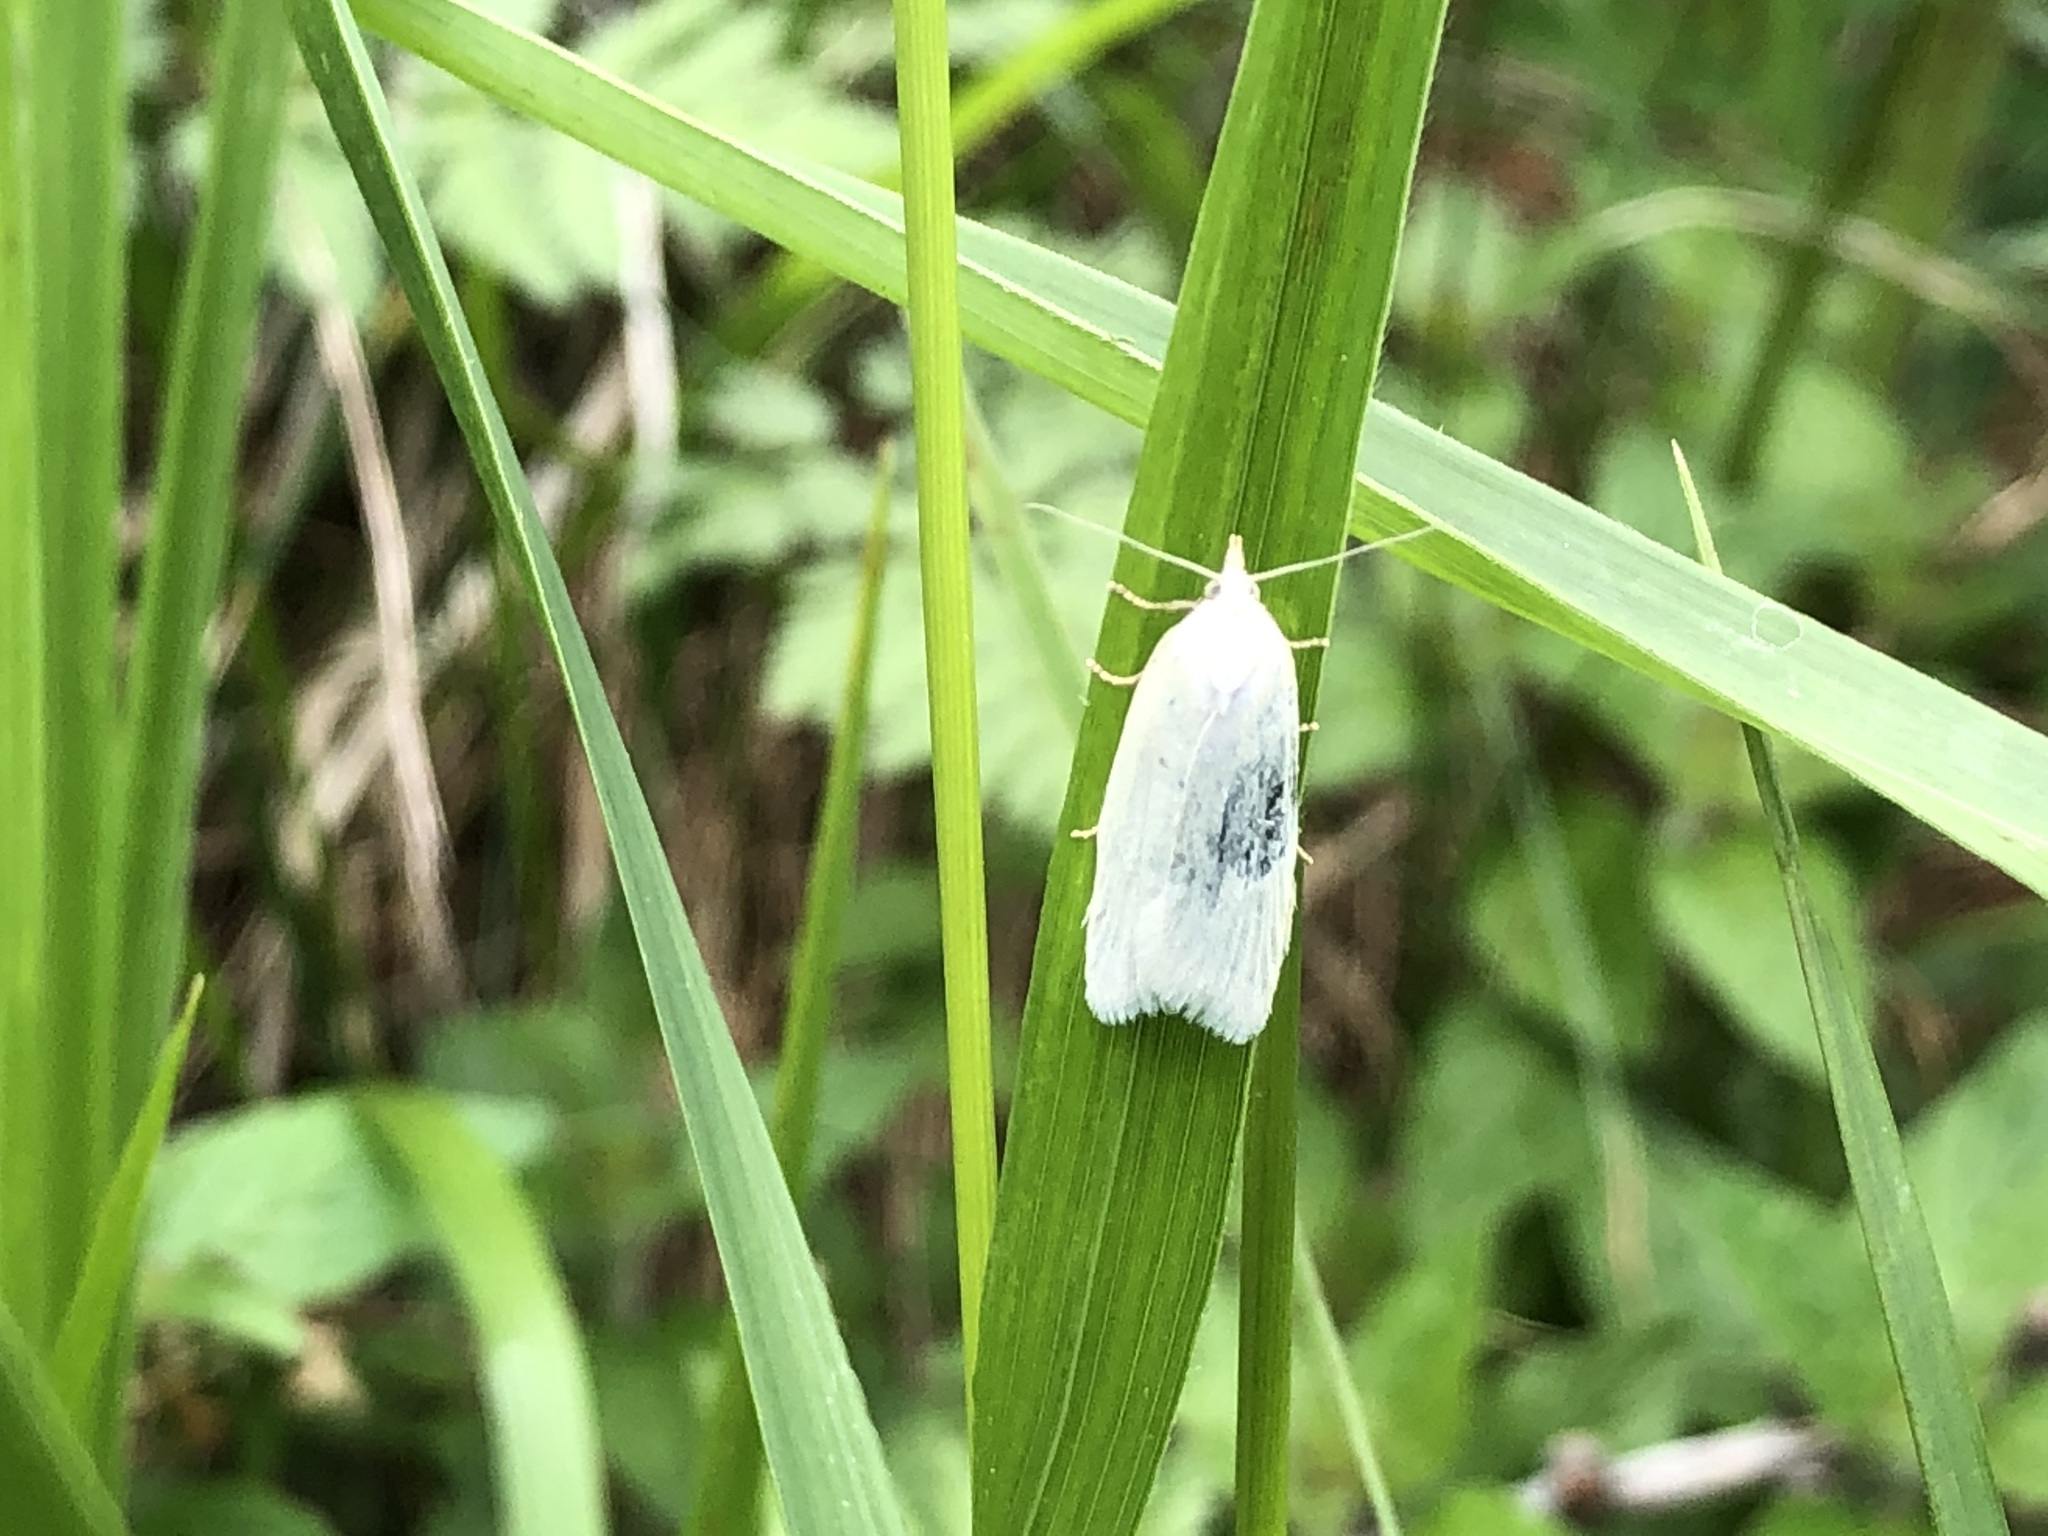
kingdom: Animalia
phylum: Arthropoda
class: Insecta
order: Lepidoptera
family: Tortricidae
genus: Eana
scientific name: Eana argentana
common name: Silver shade
